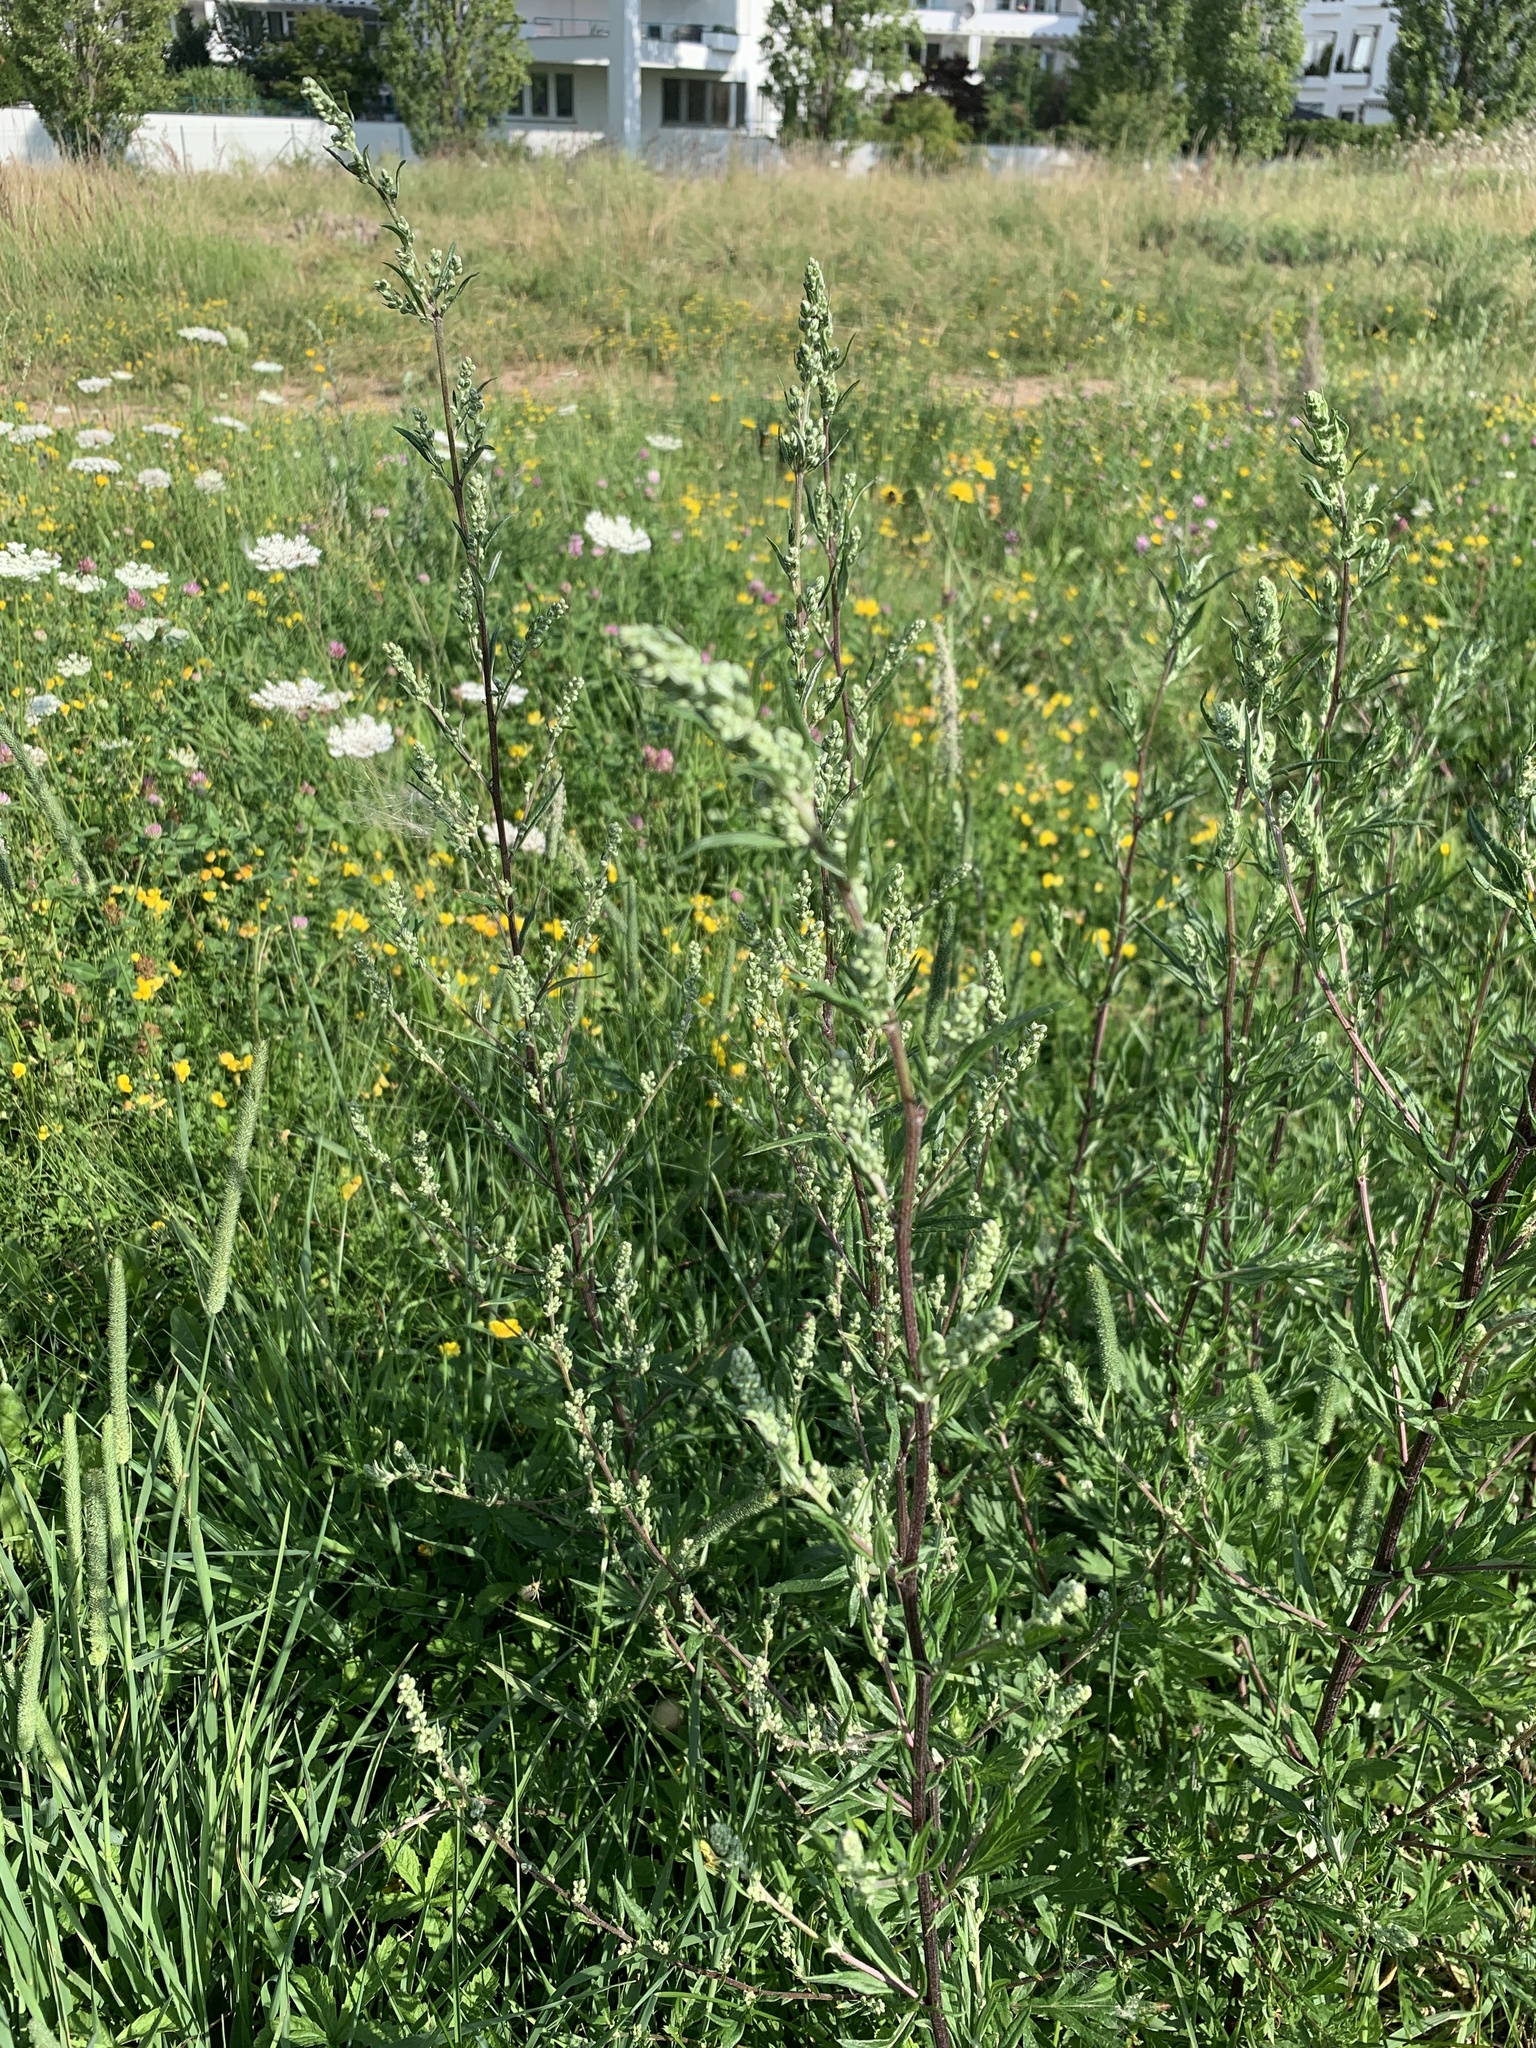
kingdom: Plantae
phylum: Tracheophyta
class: Magnoliopsida
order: Asterales
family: Asteraceae
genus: Artemisia
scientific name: Artemisia vulgaris
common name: Mugwort
